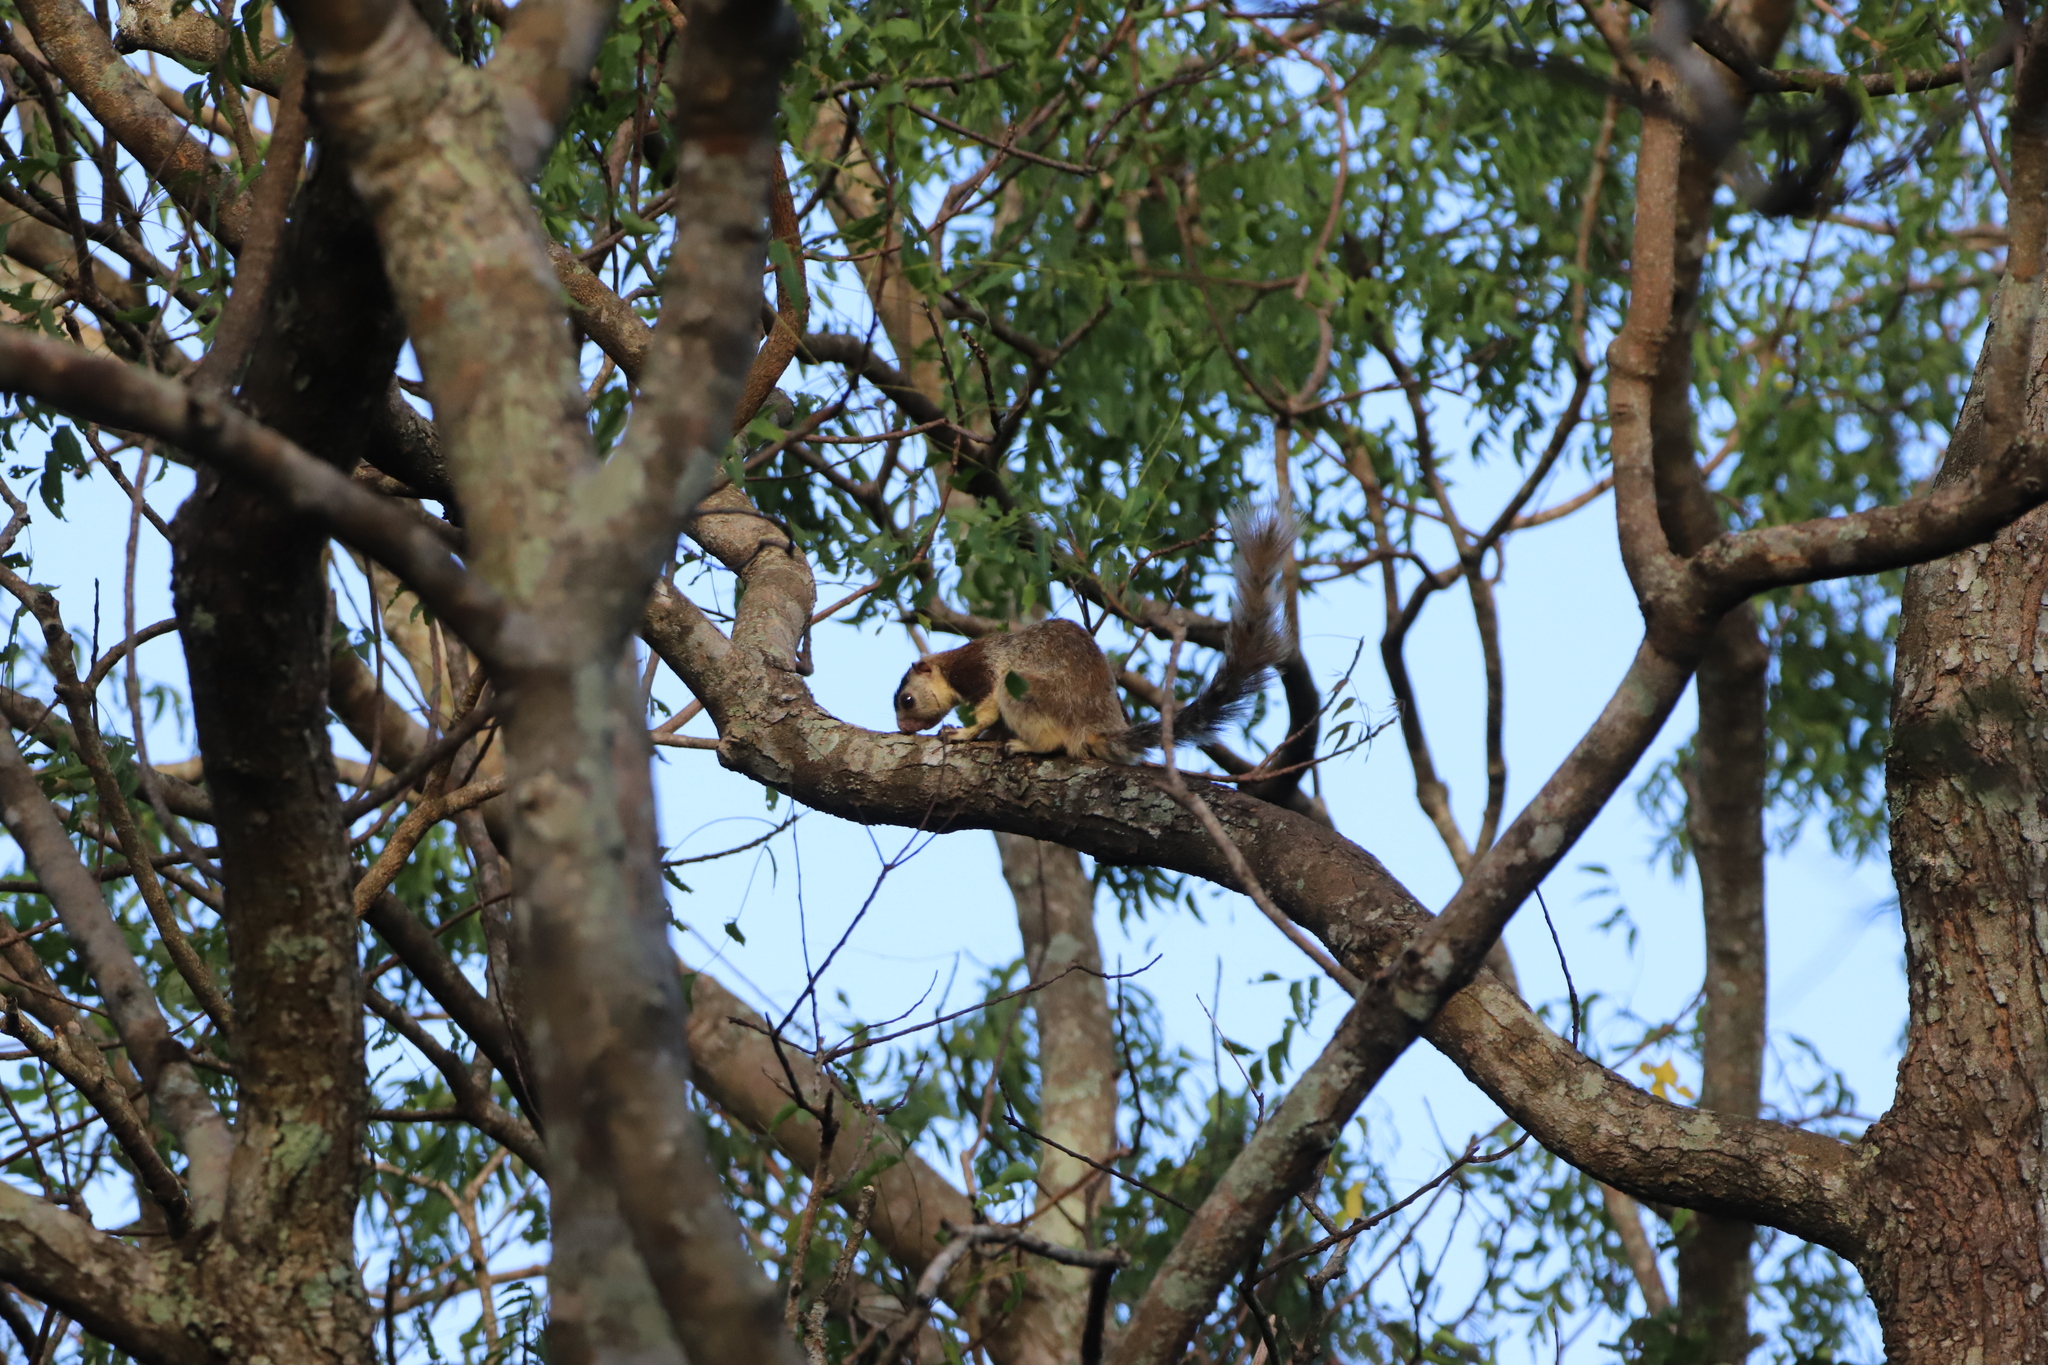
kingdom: Animalia
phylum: Chordata
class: Mammalia
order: Rodentia
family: Sciuridae
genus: Ratufa
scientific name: Ratufa macroura
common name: Sri lankan giant squirrel
